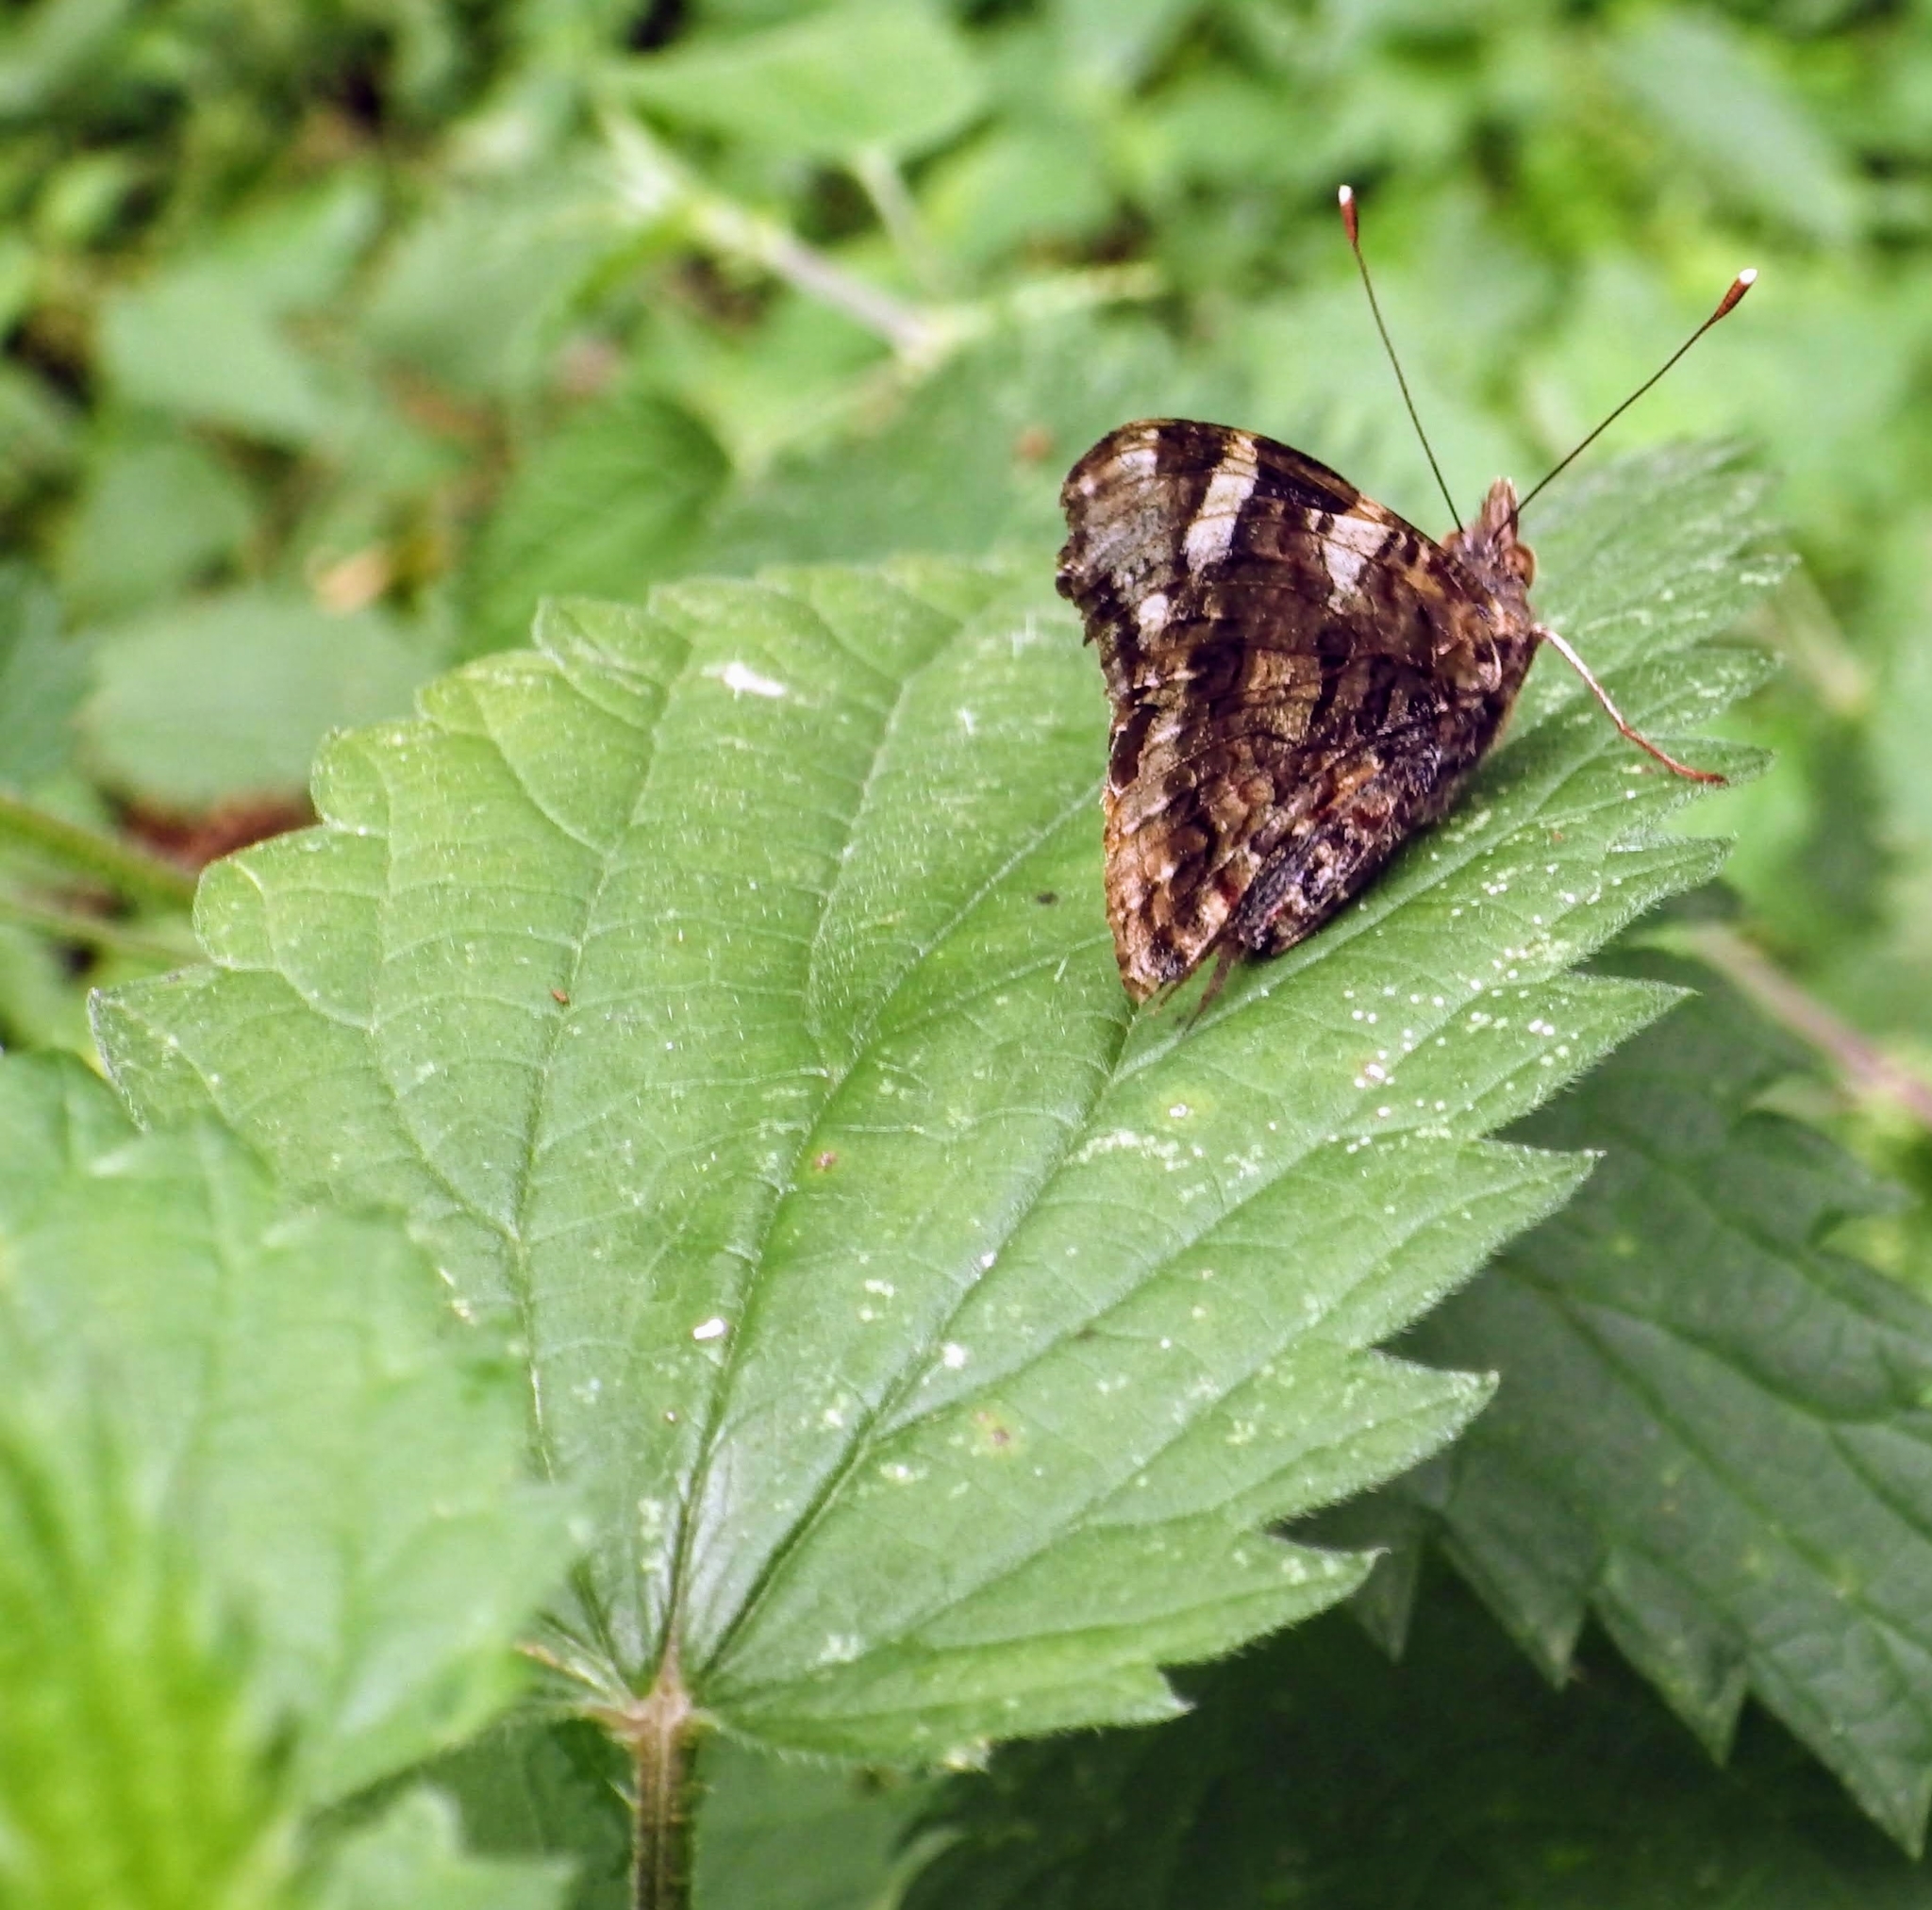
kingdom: Animalia
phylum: Arthropoda
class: Insecta
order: Lepidoptera
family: Nymphalidae
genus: Vanessa
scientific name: Vanessa atalanta
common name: Red admiral
